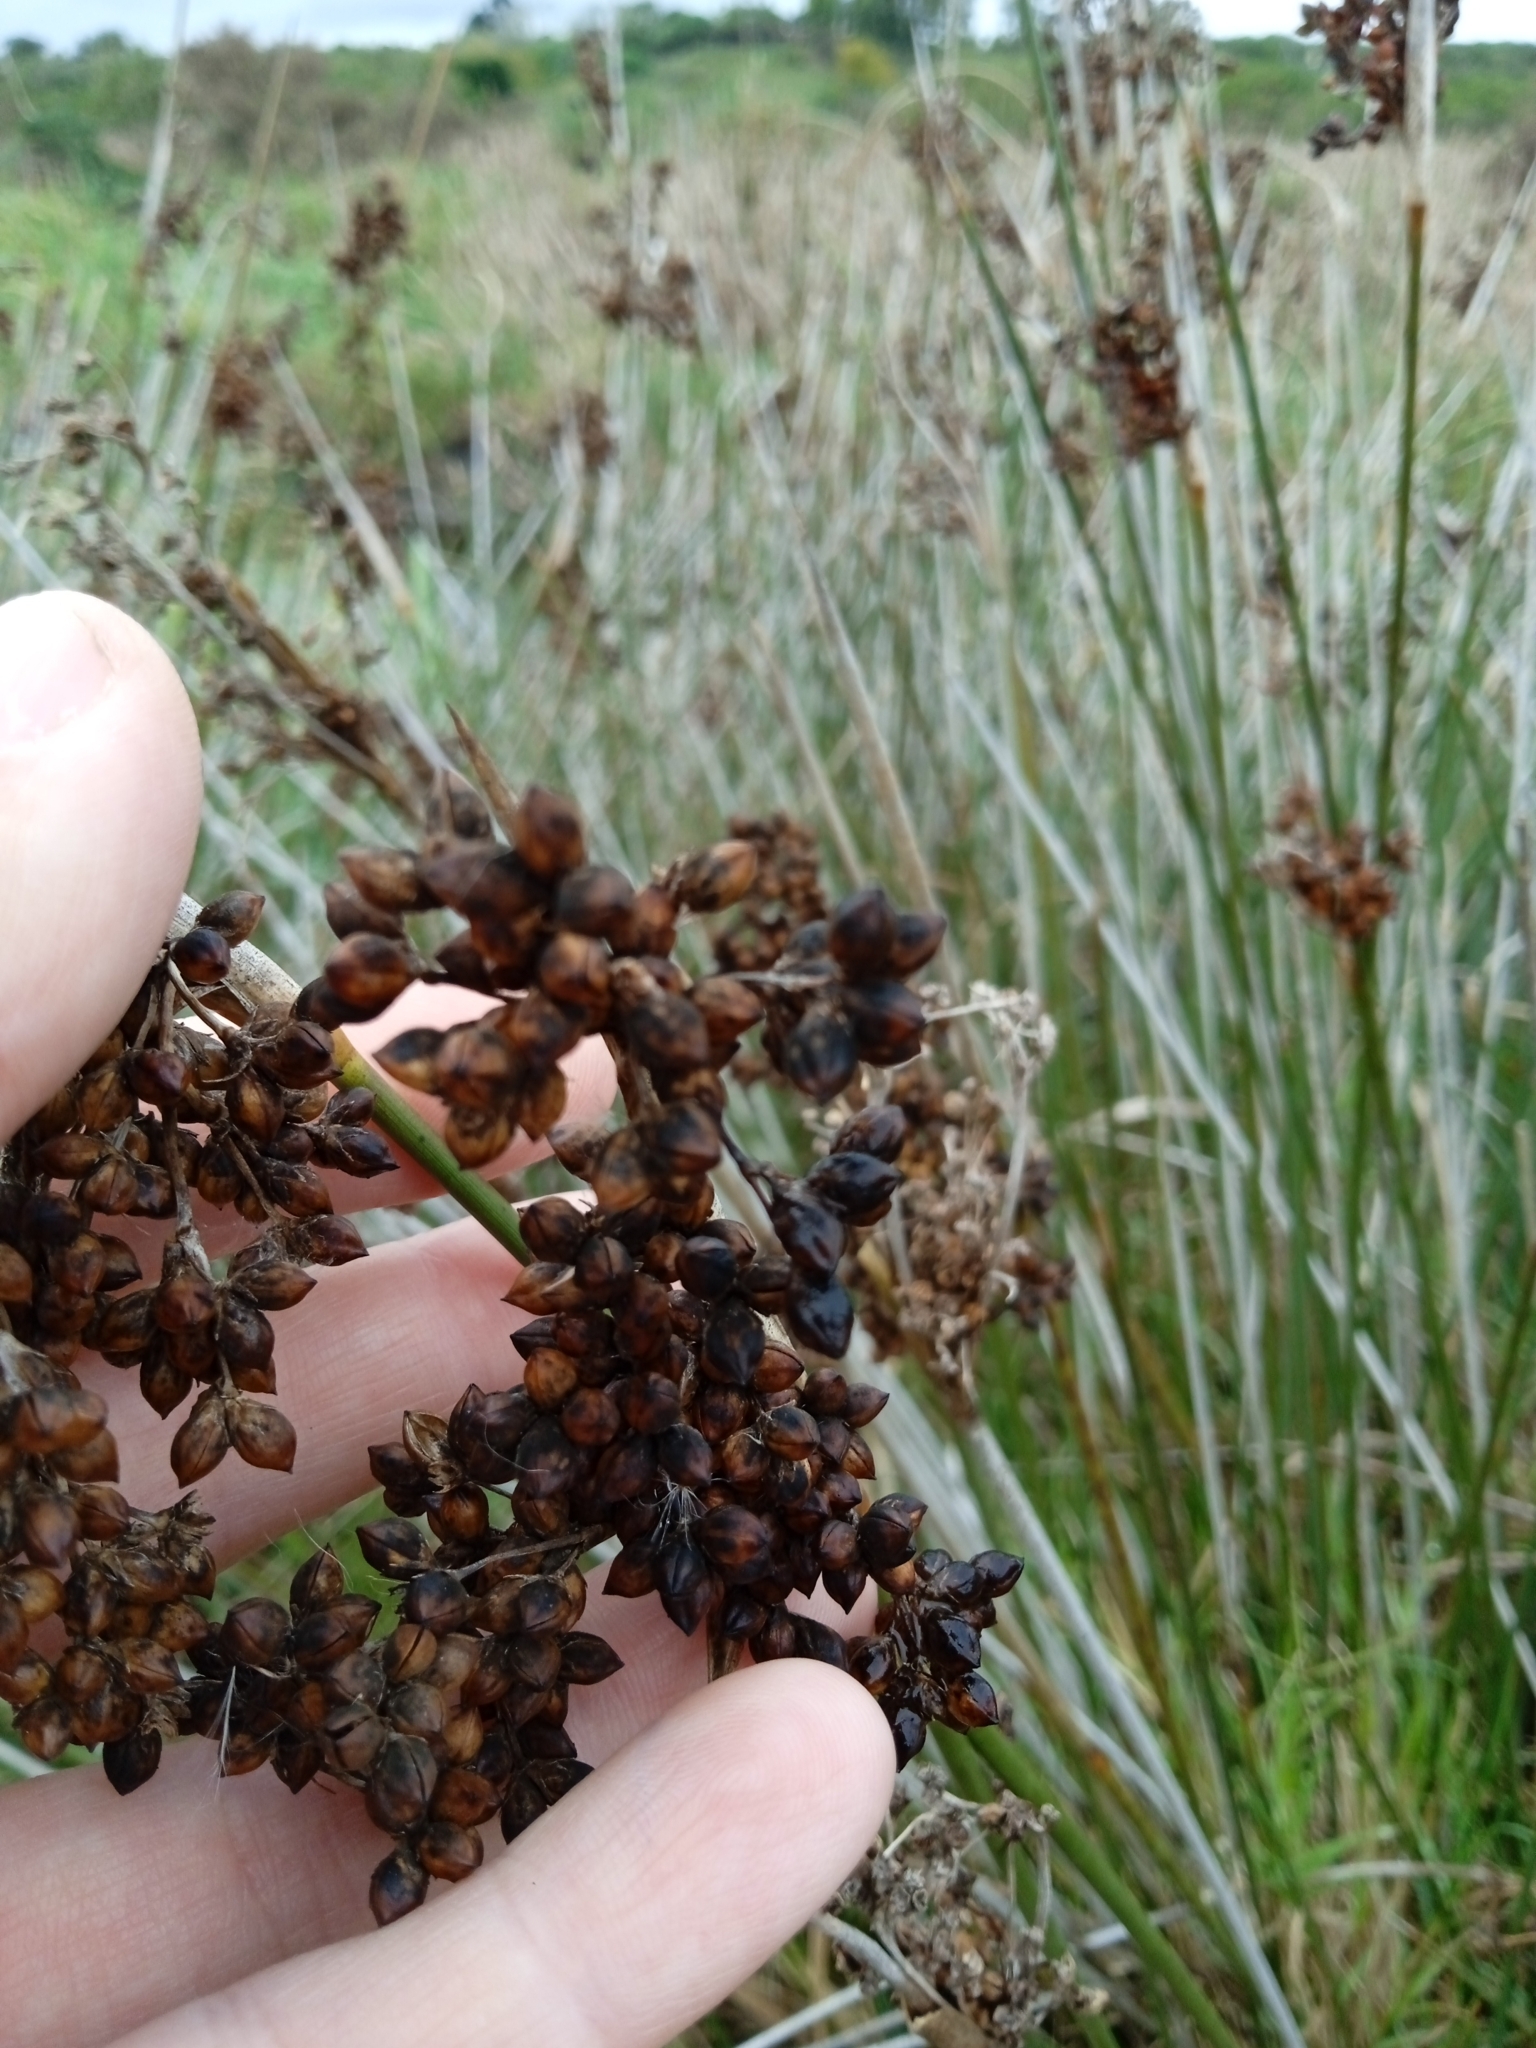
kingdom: Plantae
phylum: Tracheophyta
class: Liliopsida
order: Poales
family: Juncaceae
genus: Juncus
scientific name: Juncus acutus
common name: Sharp rush
